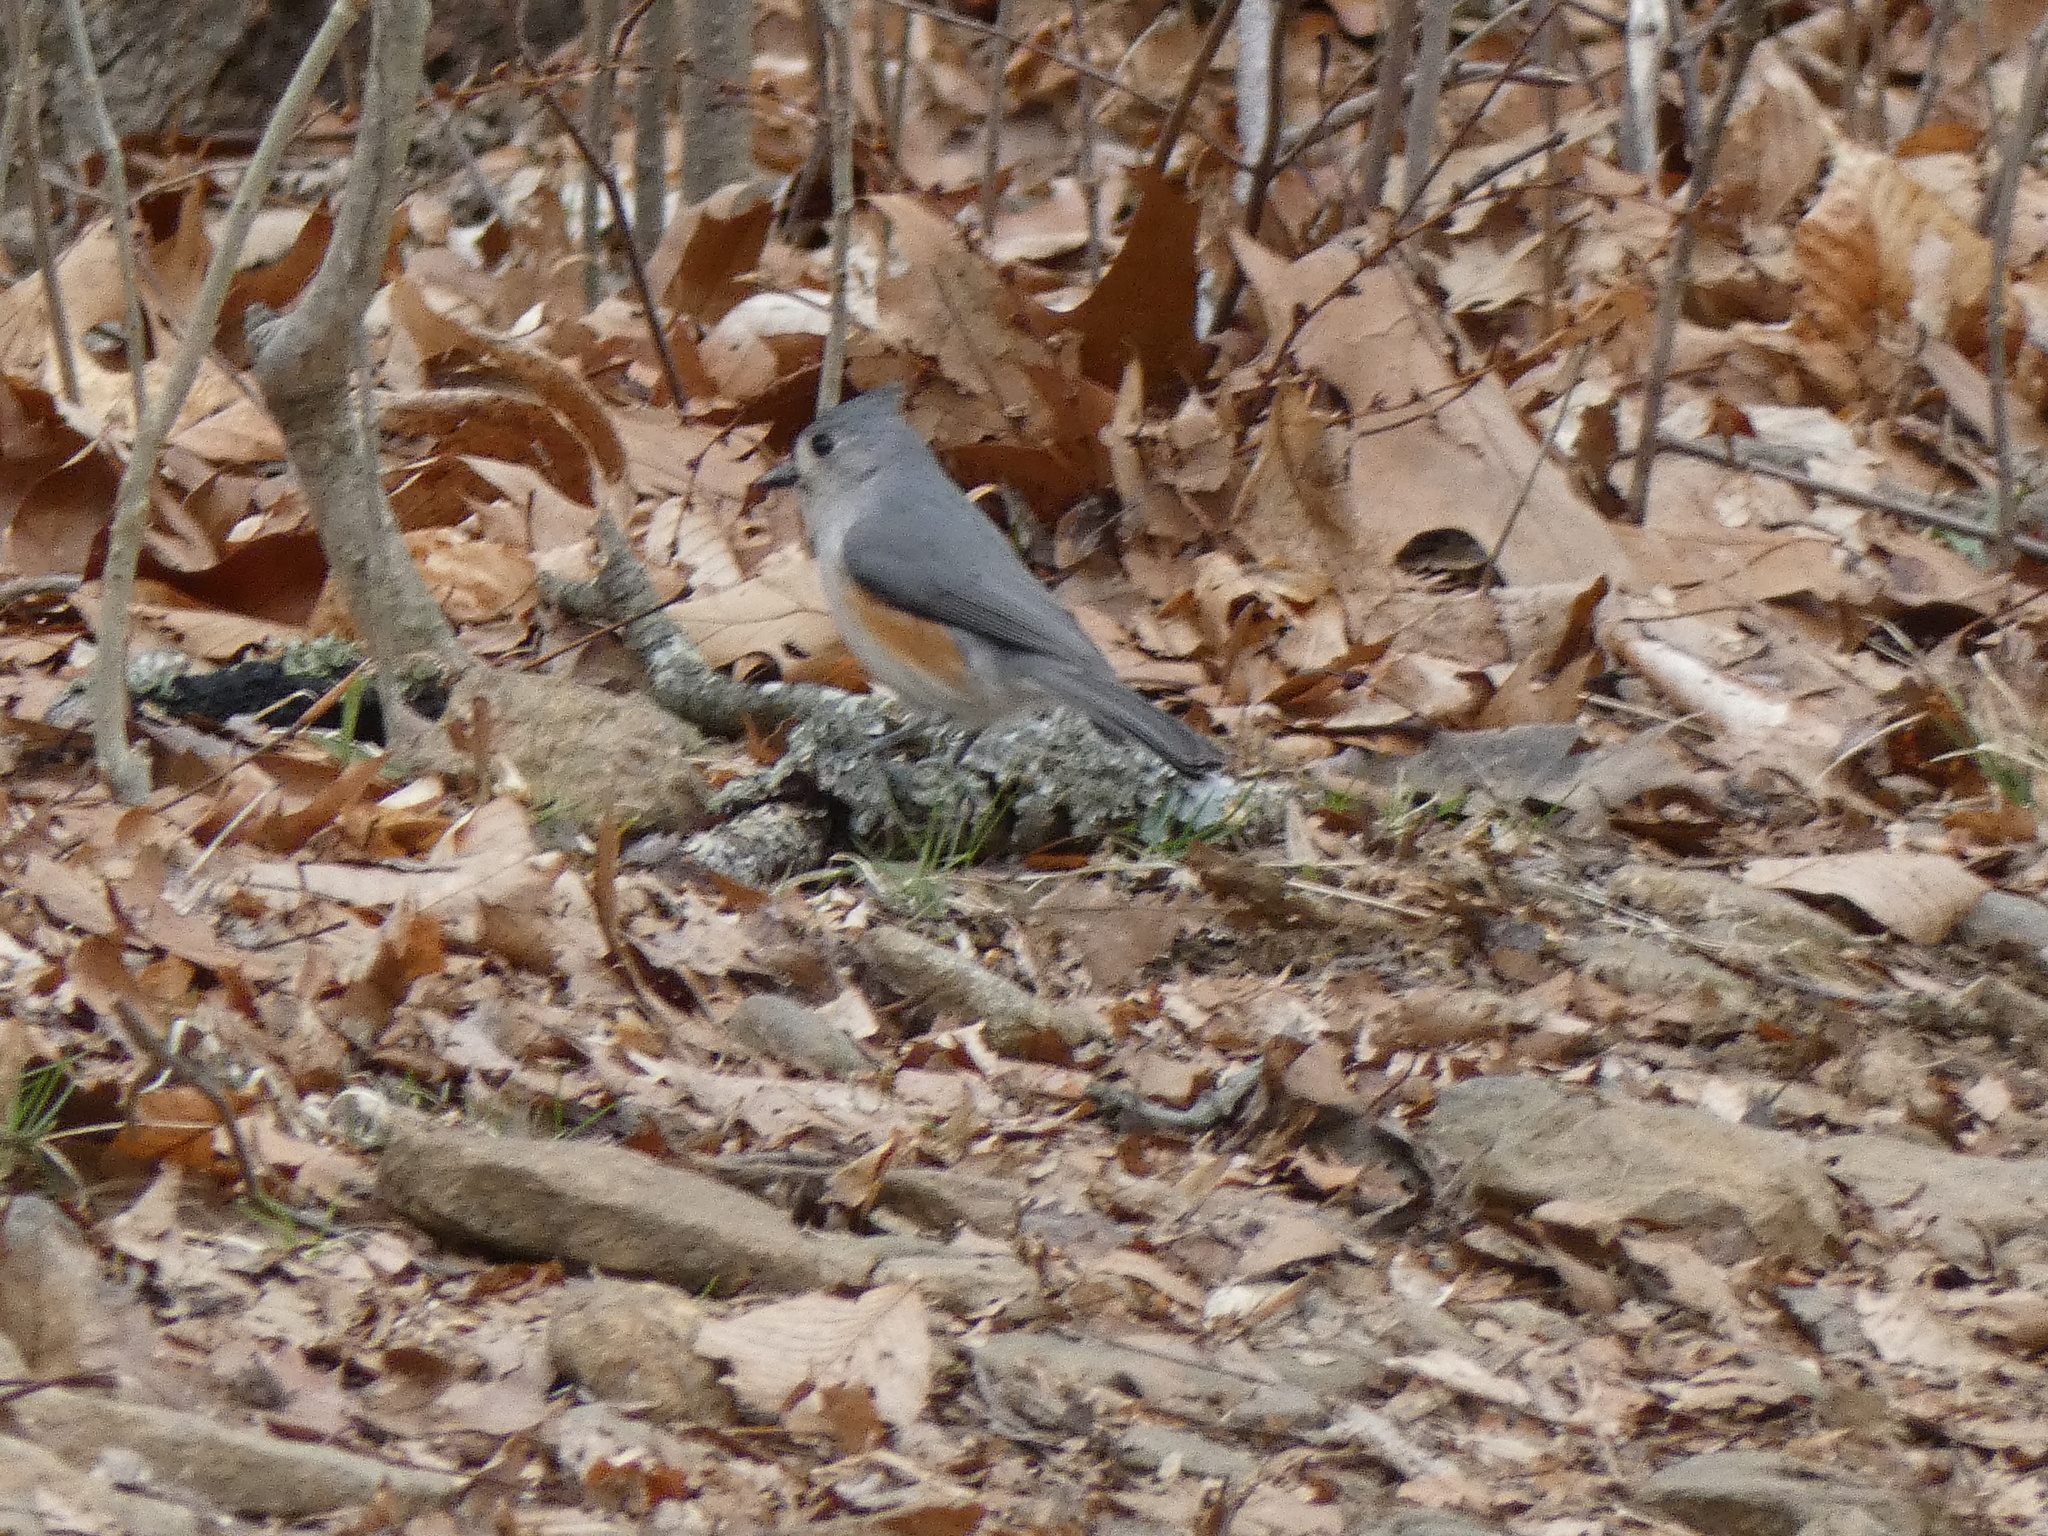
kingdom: Animalia
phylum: Chordata
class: Aves
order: Passeriformes
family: Paridae
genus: Baeolophus
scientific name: Baeolophus bicolor
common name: Tufted titmouse
